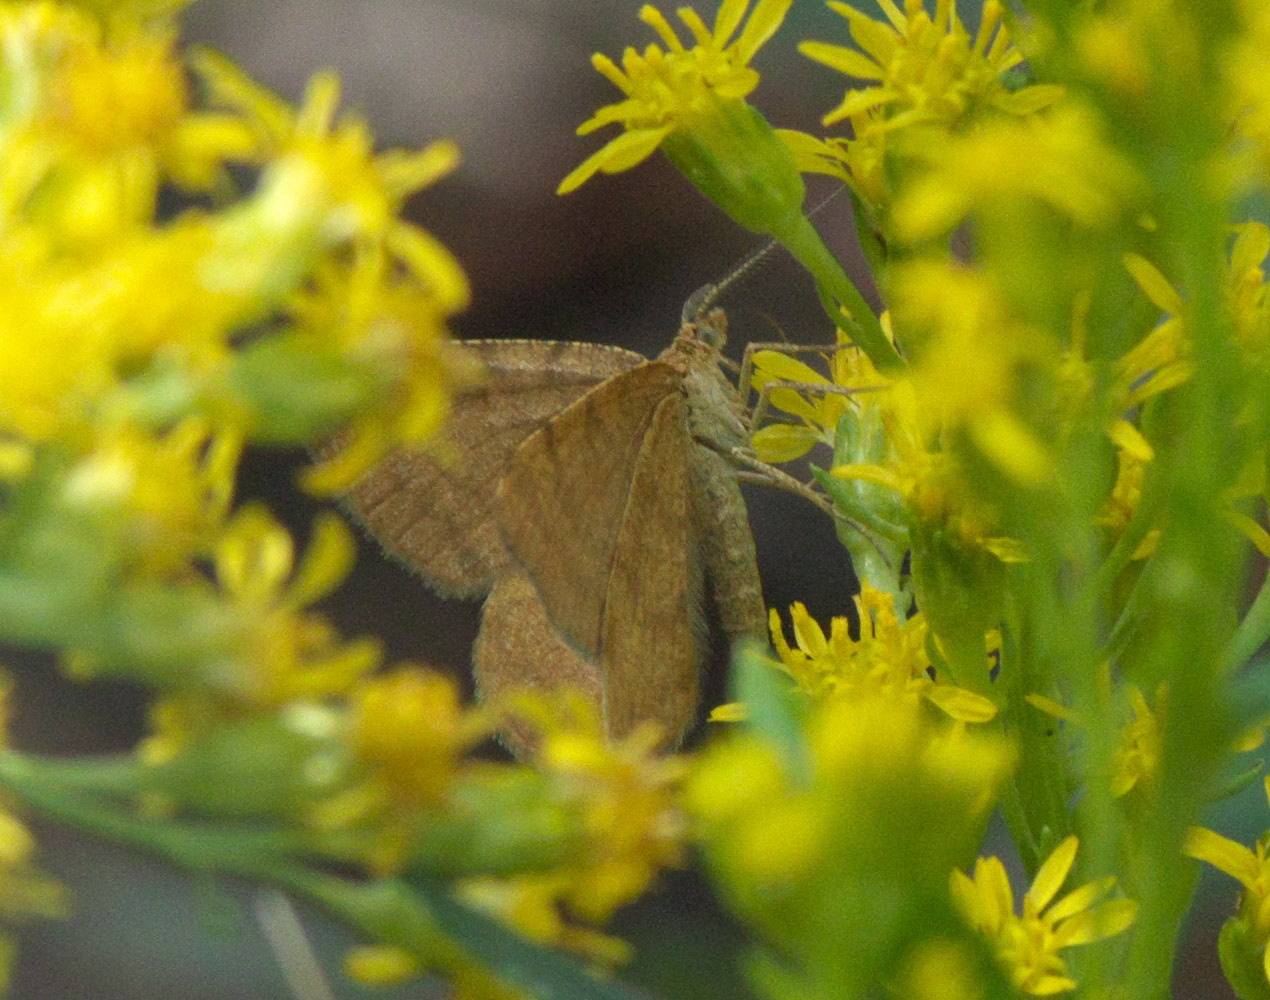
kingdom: Animalia
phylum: Arthropoda
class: Insecta
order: Lepidoptera
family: Geometridae
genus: Macaria
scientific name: Macaria brunneata
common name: Rannoch looper
